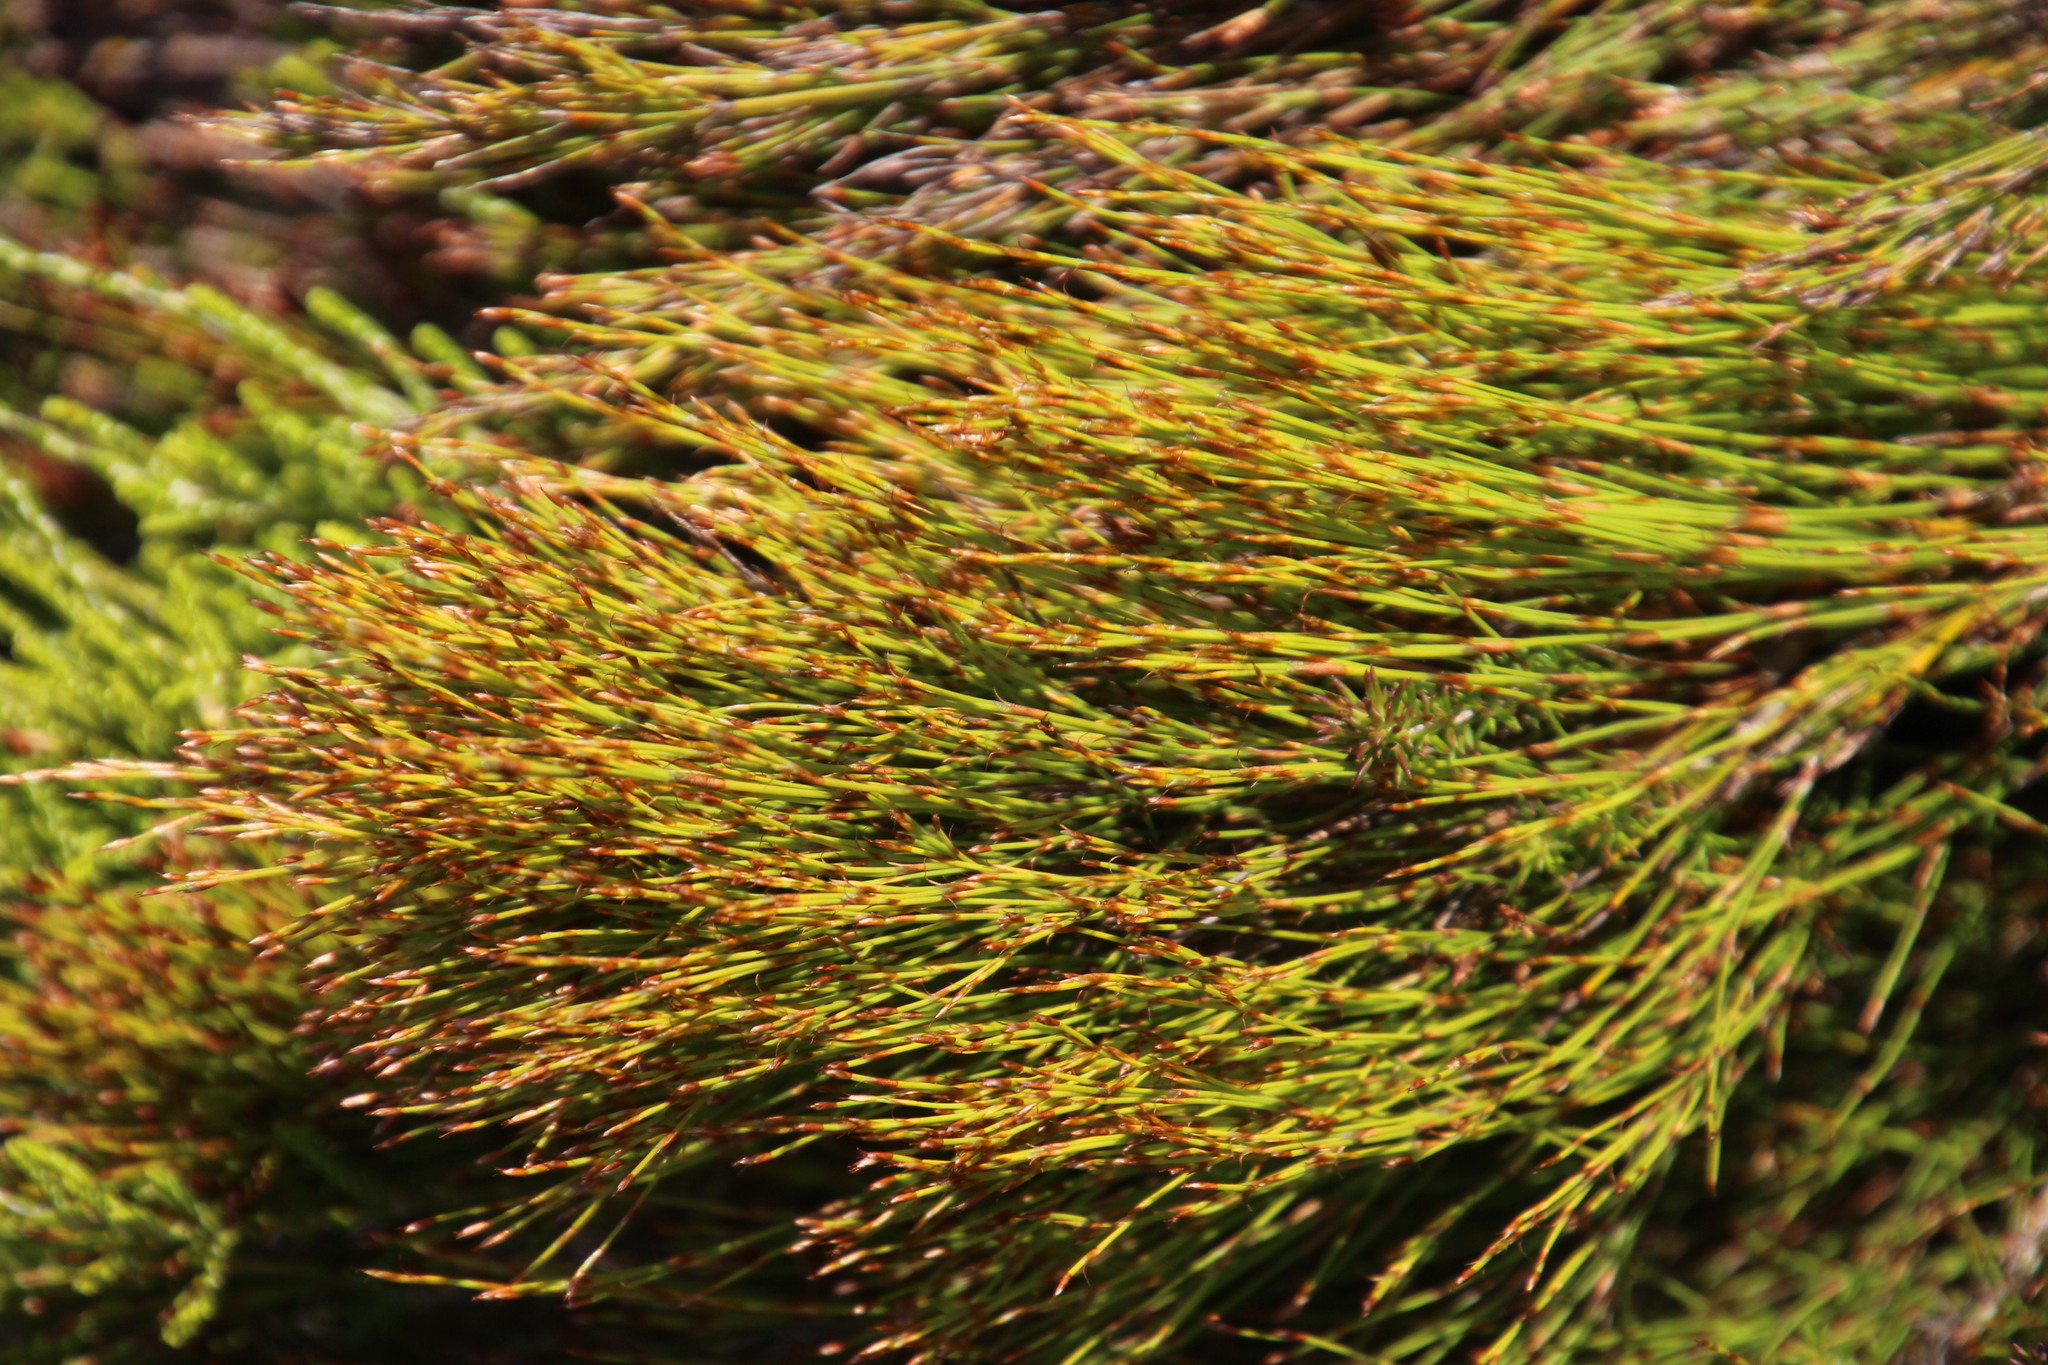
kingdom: Plantae
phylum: Tracheophyta
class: Liliopsida
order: Poales
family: Restionaceae
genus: Restio
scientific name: Restio leptoclados
